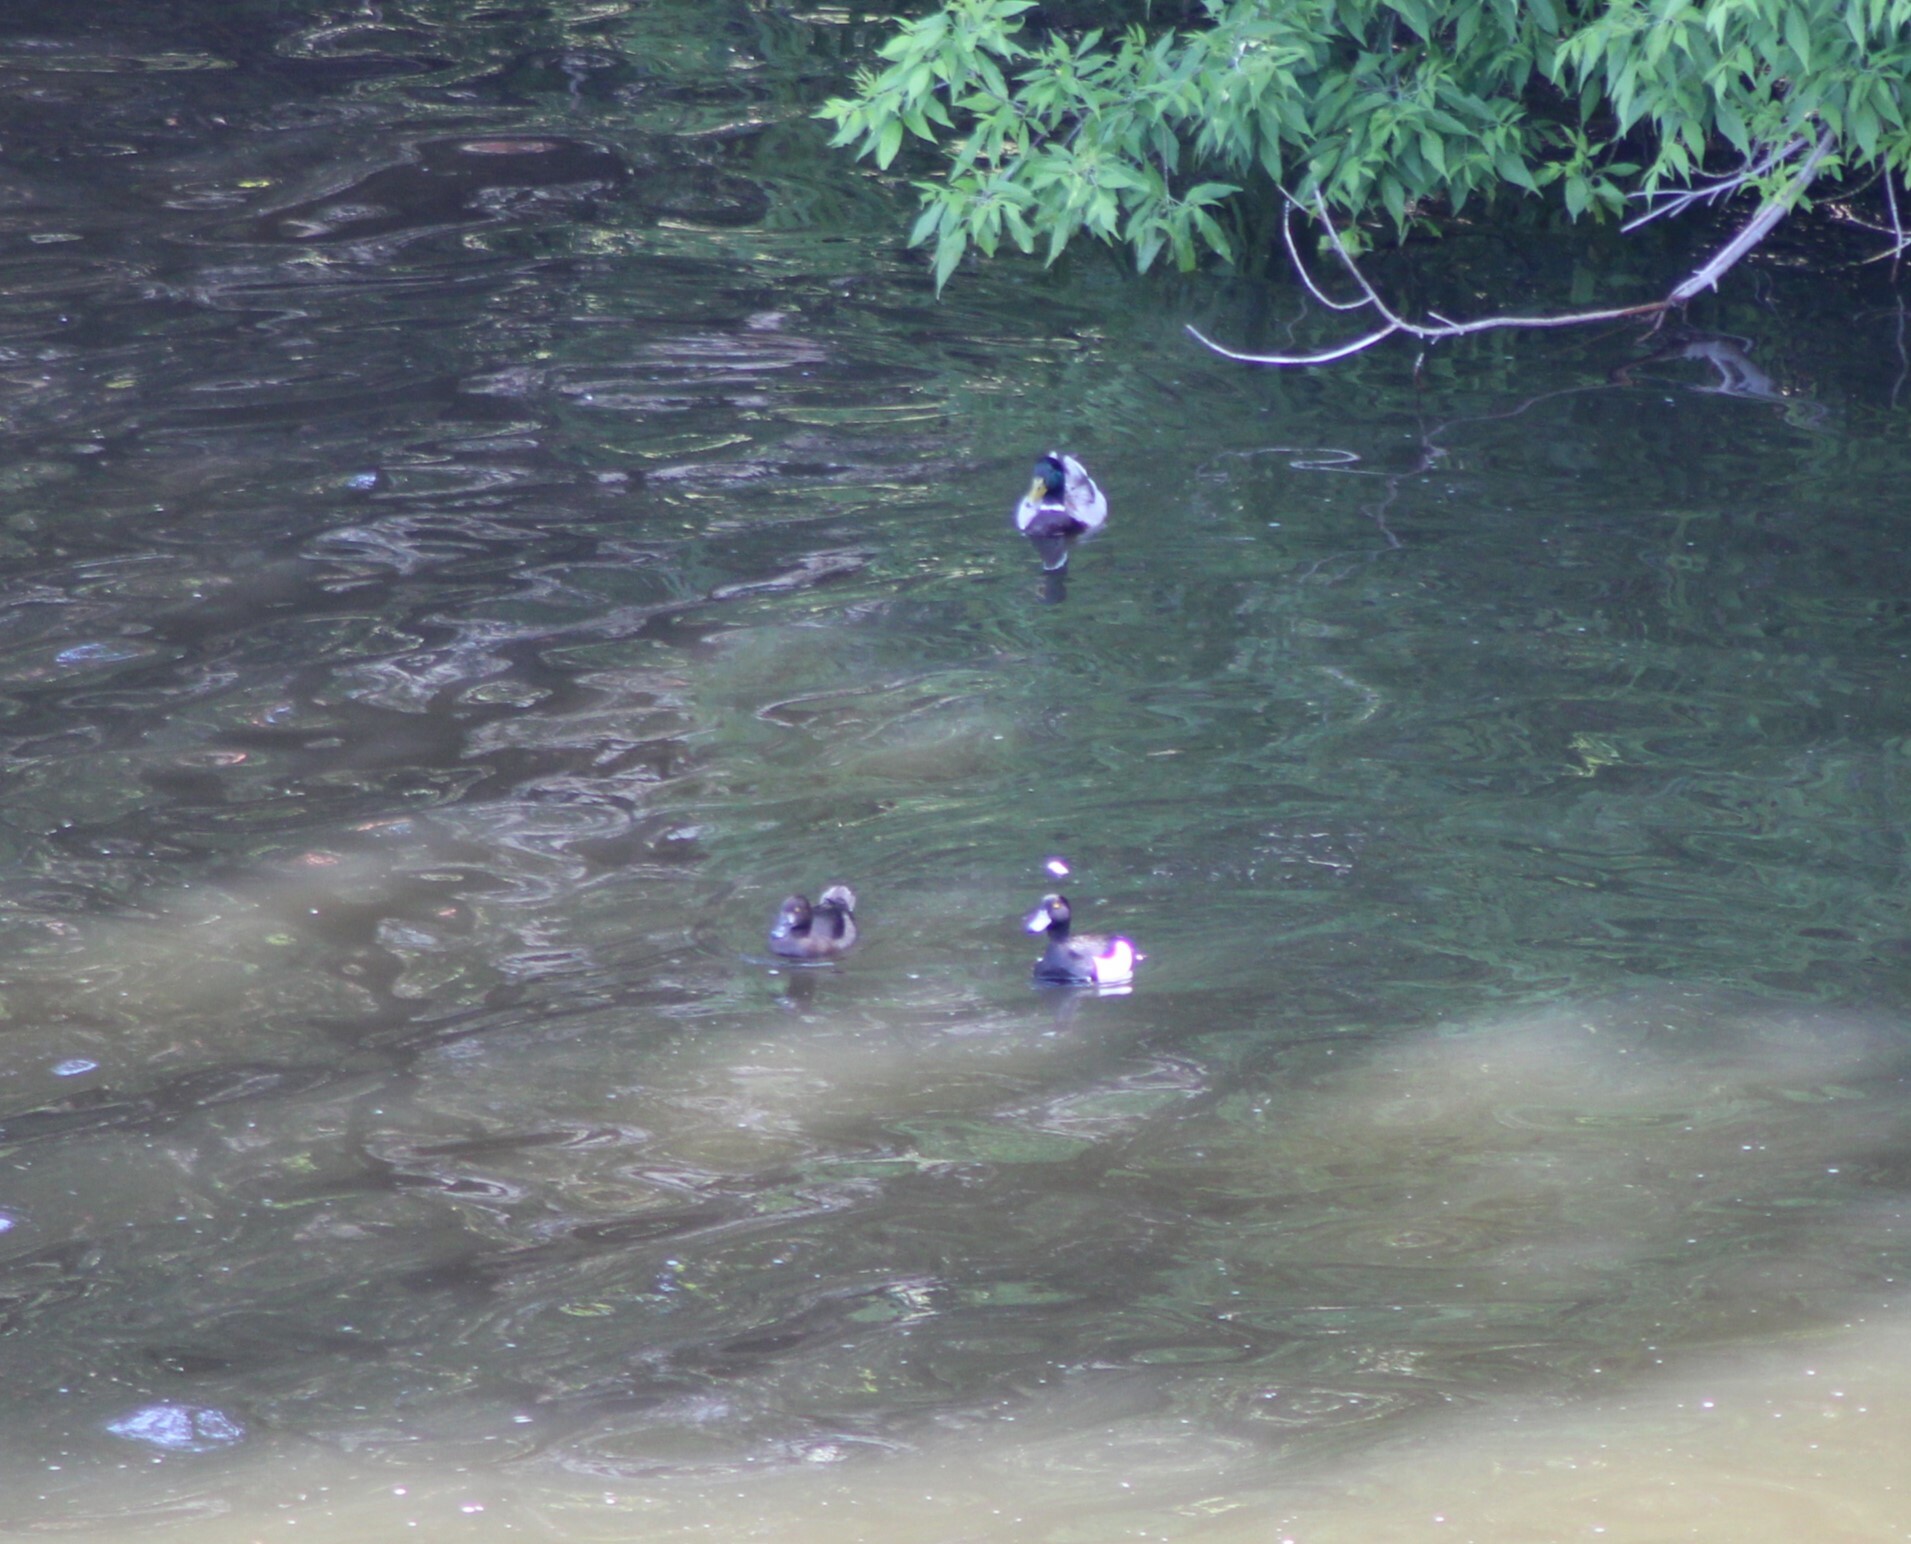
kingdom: Animalia
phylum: Chordata
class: Aves
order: Anseriformes
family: Anatidae
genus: Aythya
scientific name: Aythya fuligula
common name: Tufted duck
